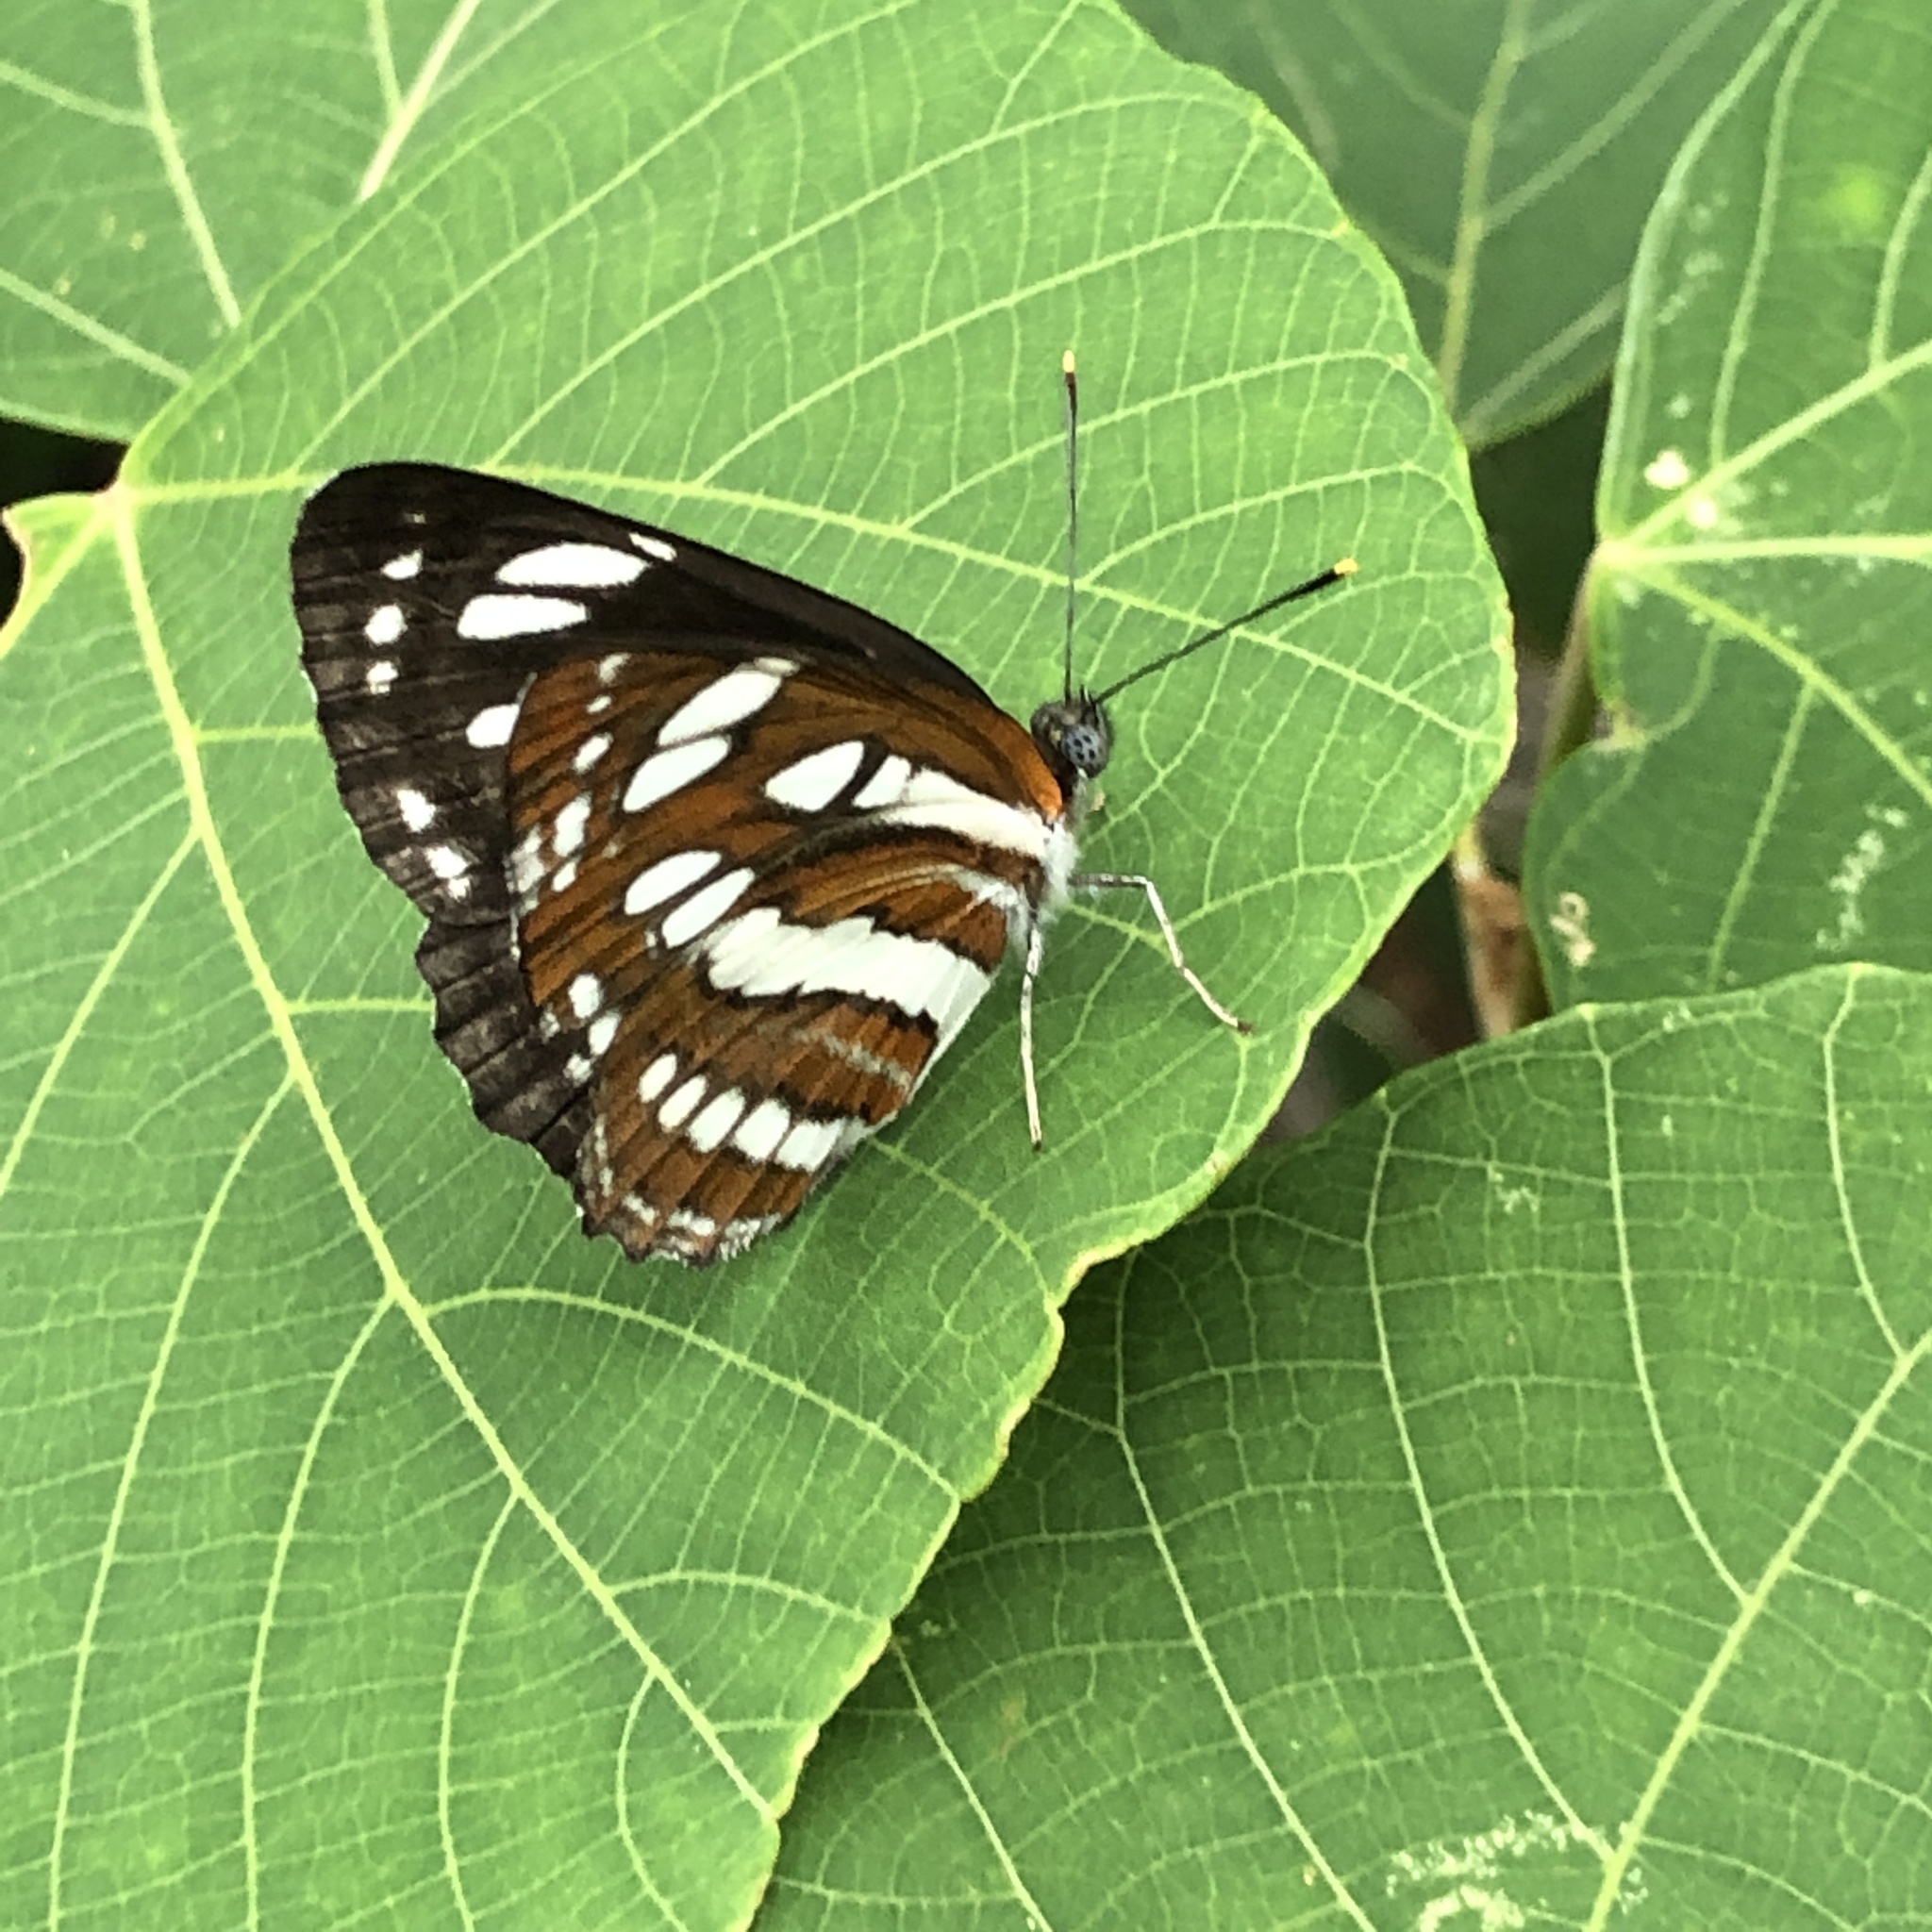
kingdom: Animalia
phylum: Arthropoda
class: Insecta
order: Lepidoptera
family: Nymphalidae
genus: Neptis
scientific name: Neptis hylas
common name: Common sailer
